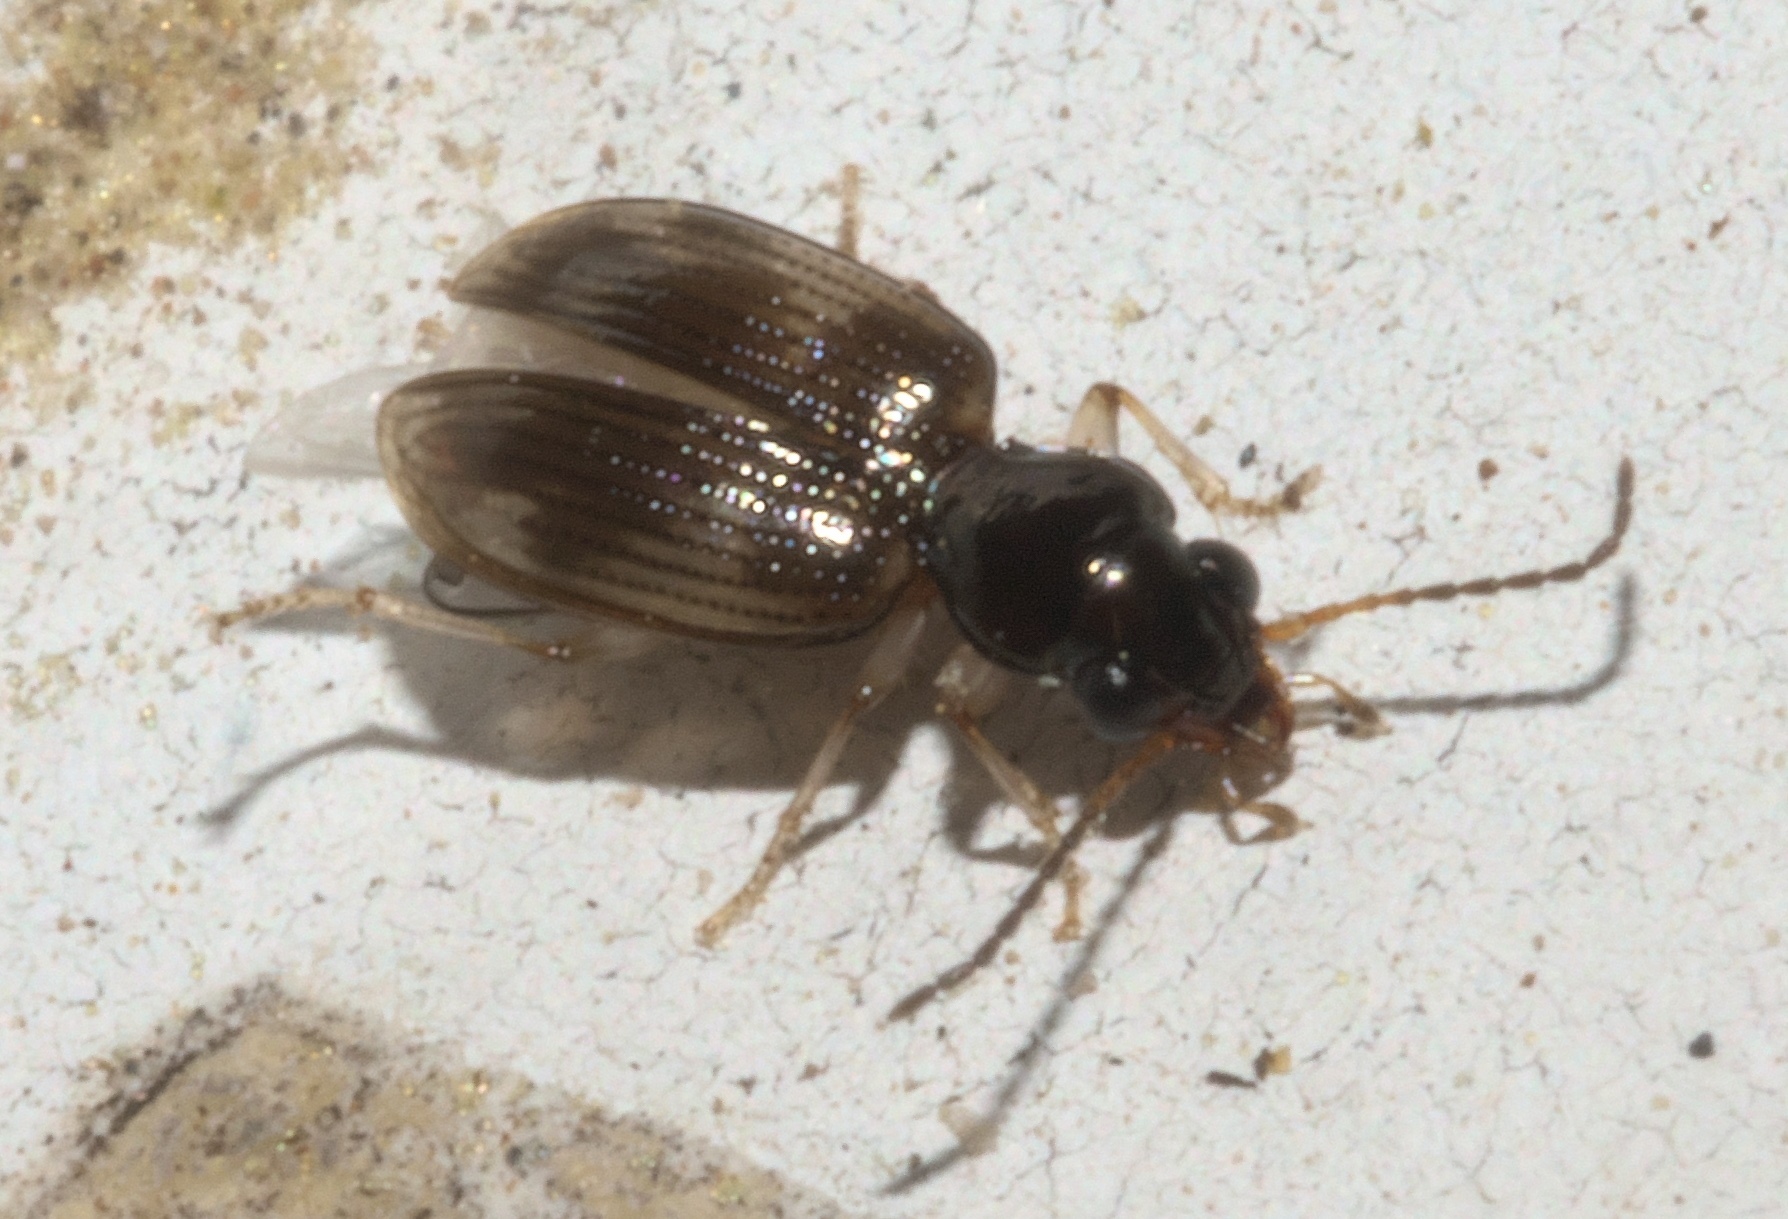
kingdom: Animalia
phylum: Arthropoda
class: Insecta
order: Coleoptera
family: Carabidae
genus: Bembidion
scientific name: Bembidion affine
